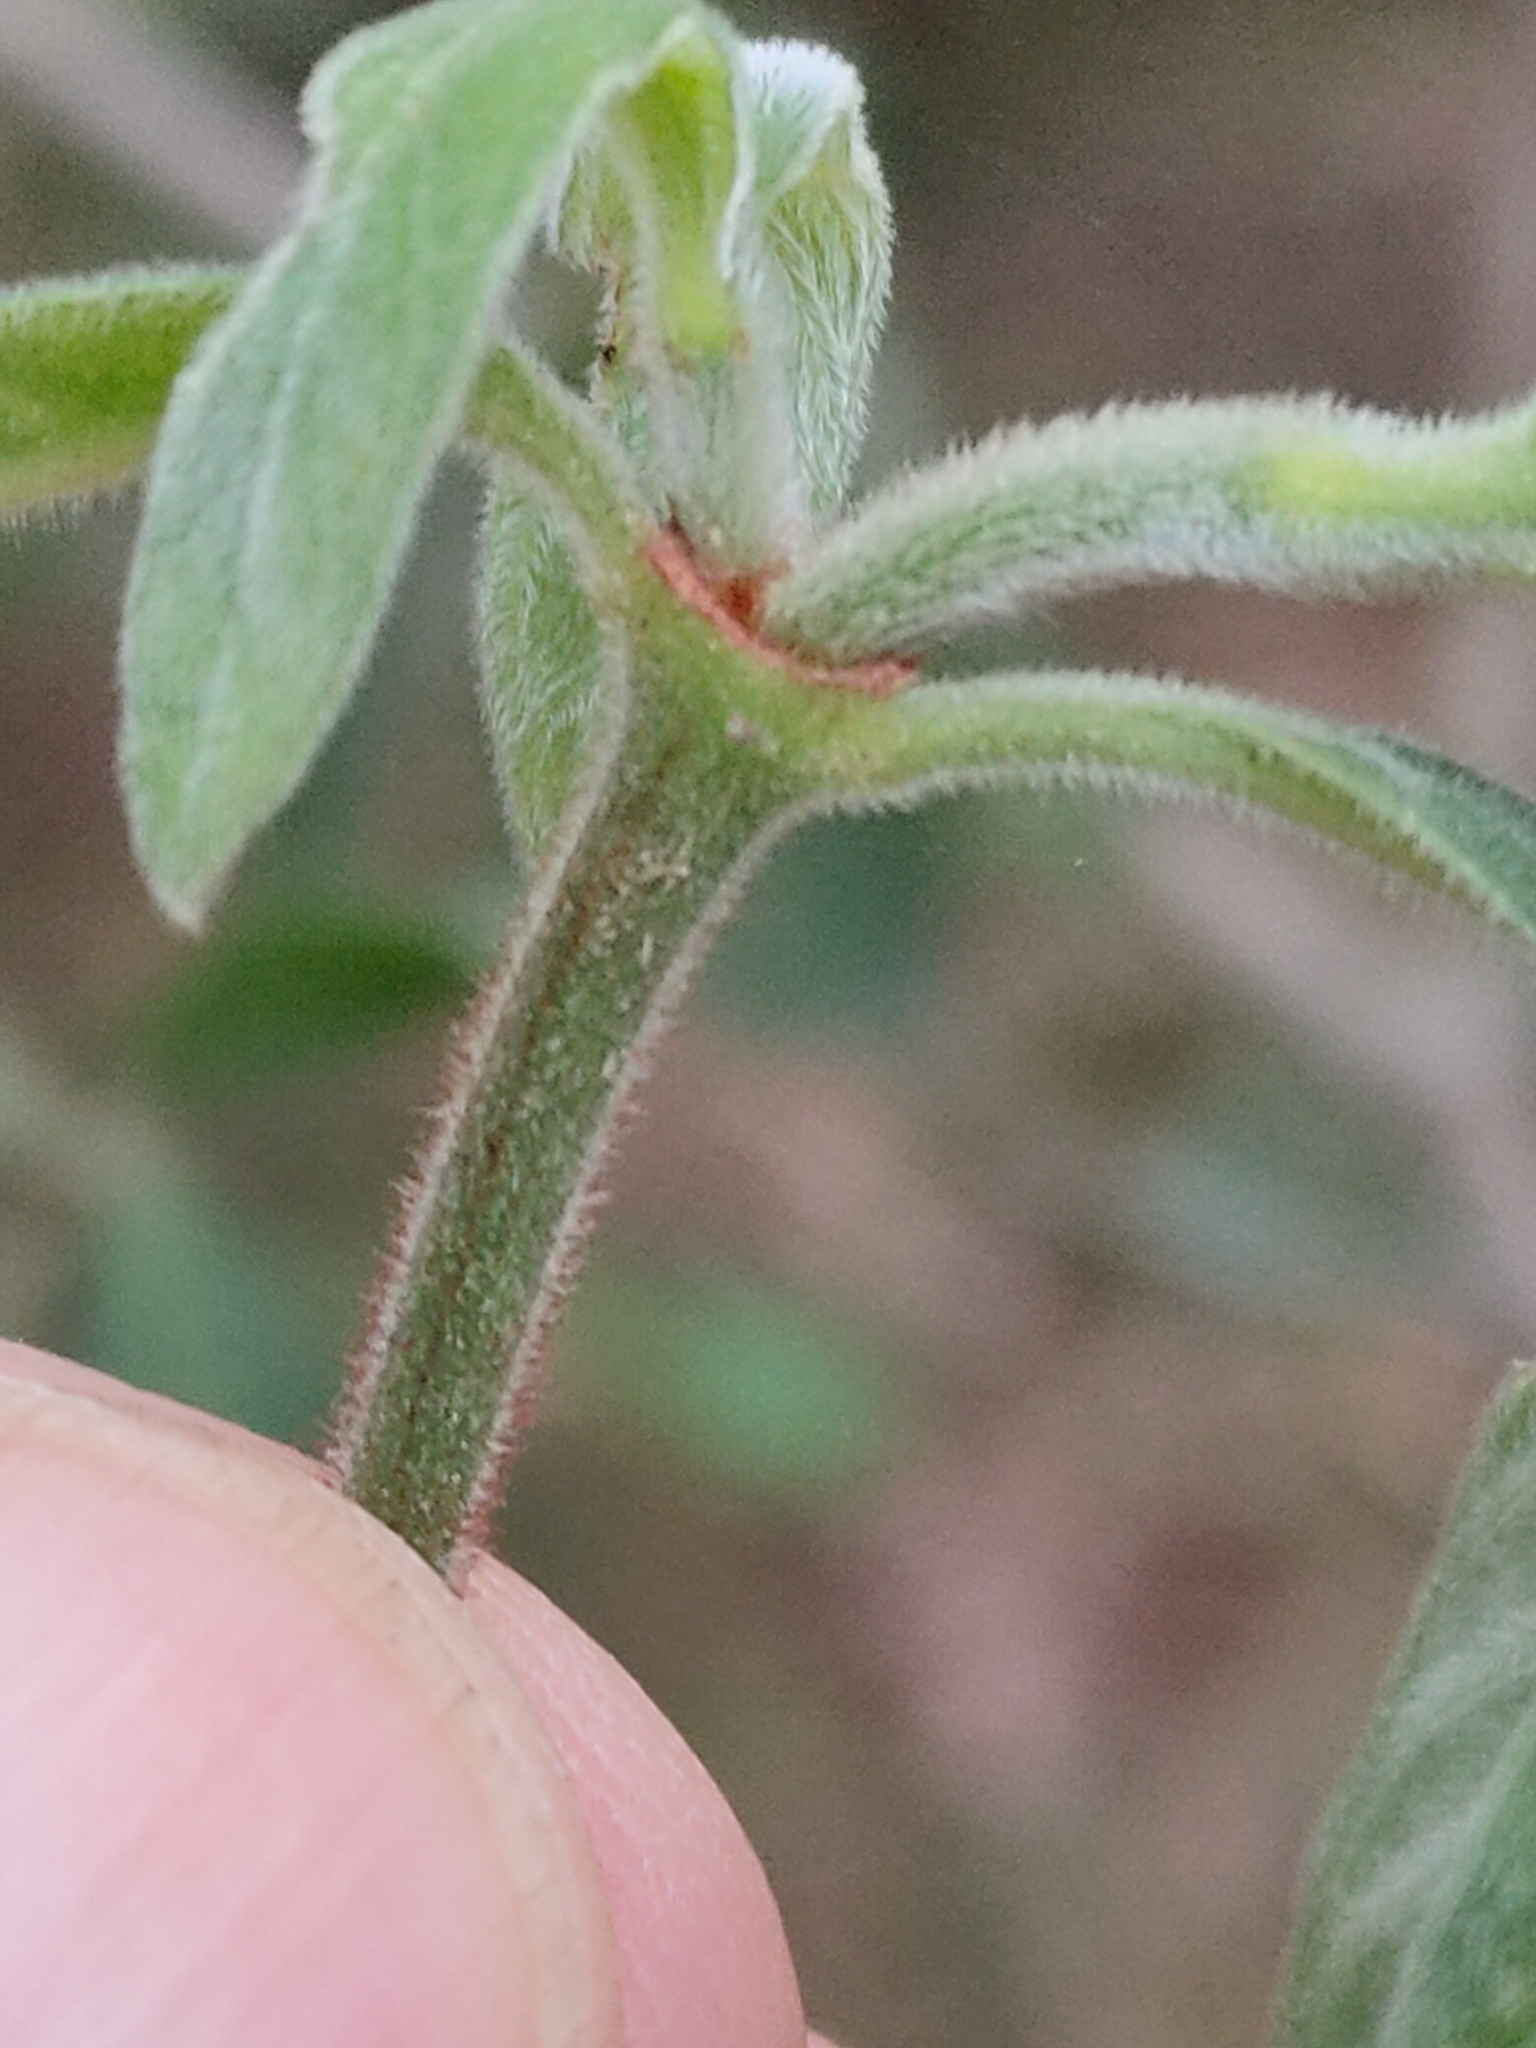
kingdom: Plantae
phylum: Tracheophyta
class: Magnoliopsida
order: Gentianales
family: Rubiaceae
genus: Psychotria
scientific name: Psychotria loniceroides
